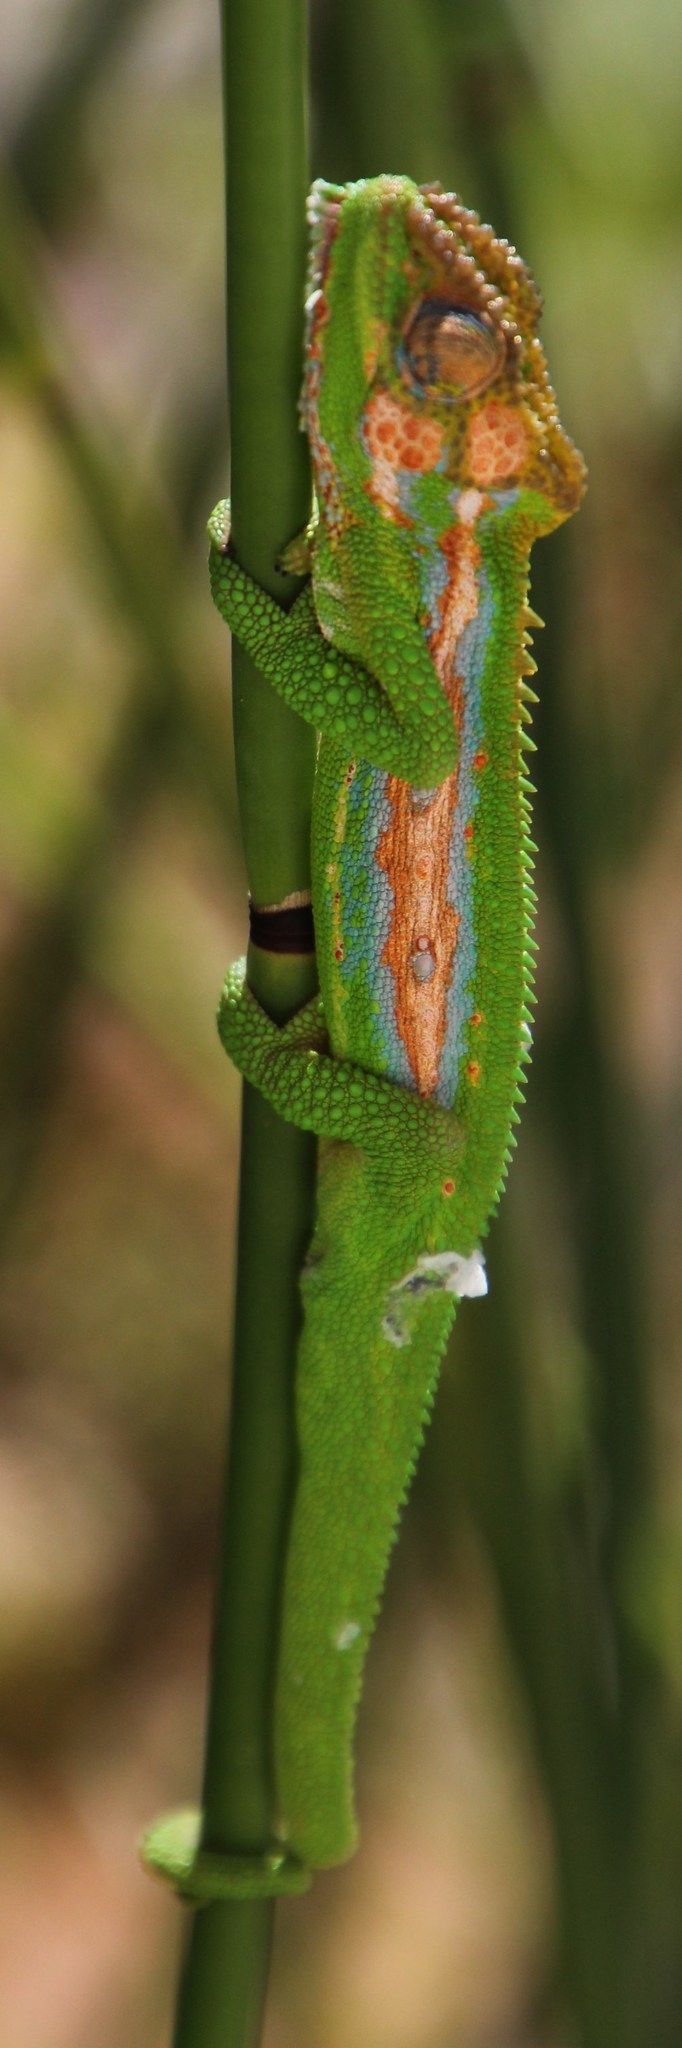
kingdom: Animalia
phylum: Chordata
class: Squamata
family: Chamaeleonidae
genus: Bradypodion
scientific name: Bradypodion pumilum
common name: Cape dwarf chameleon
